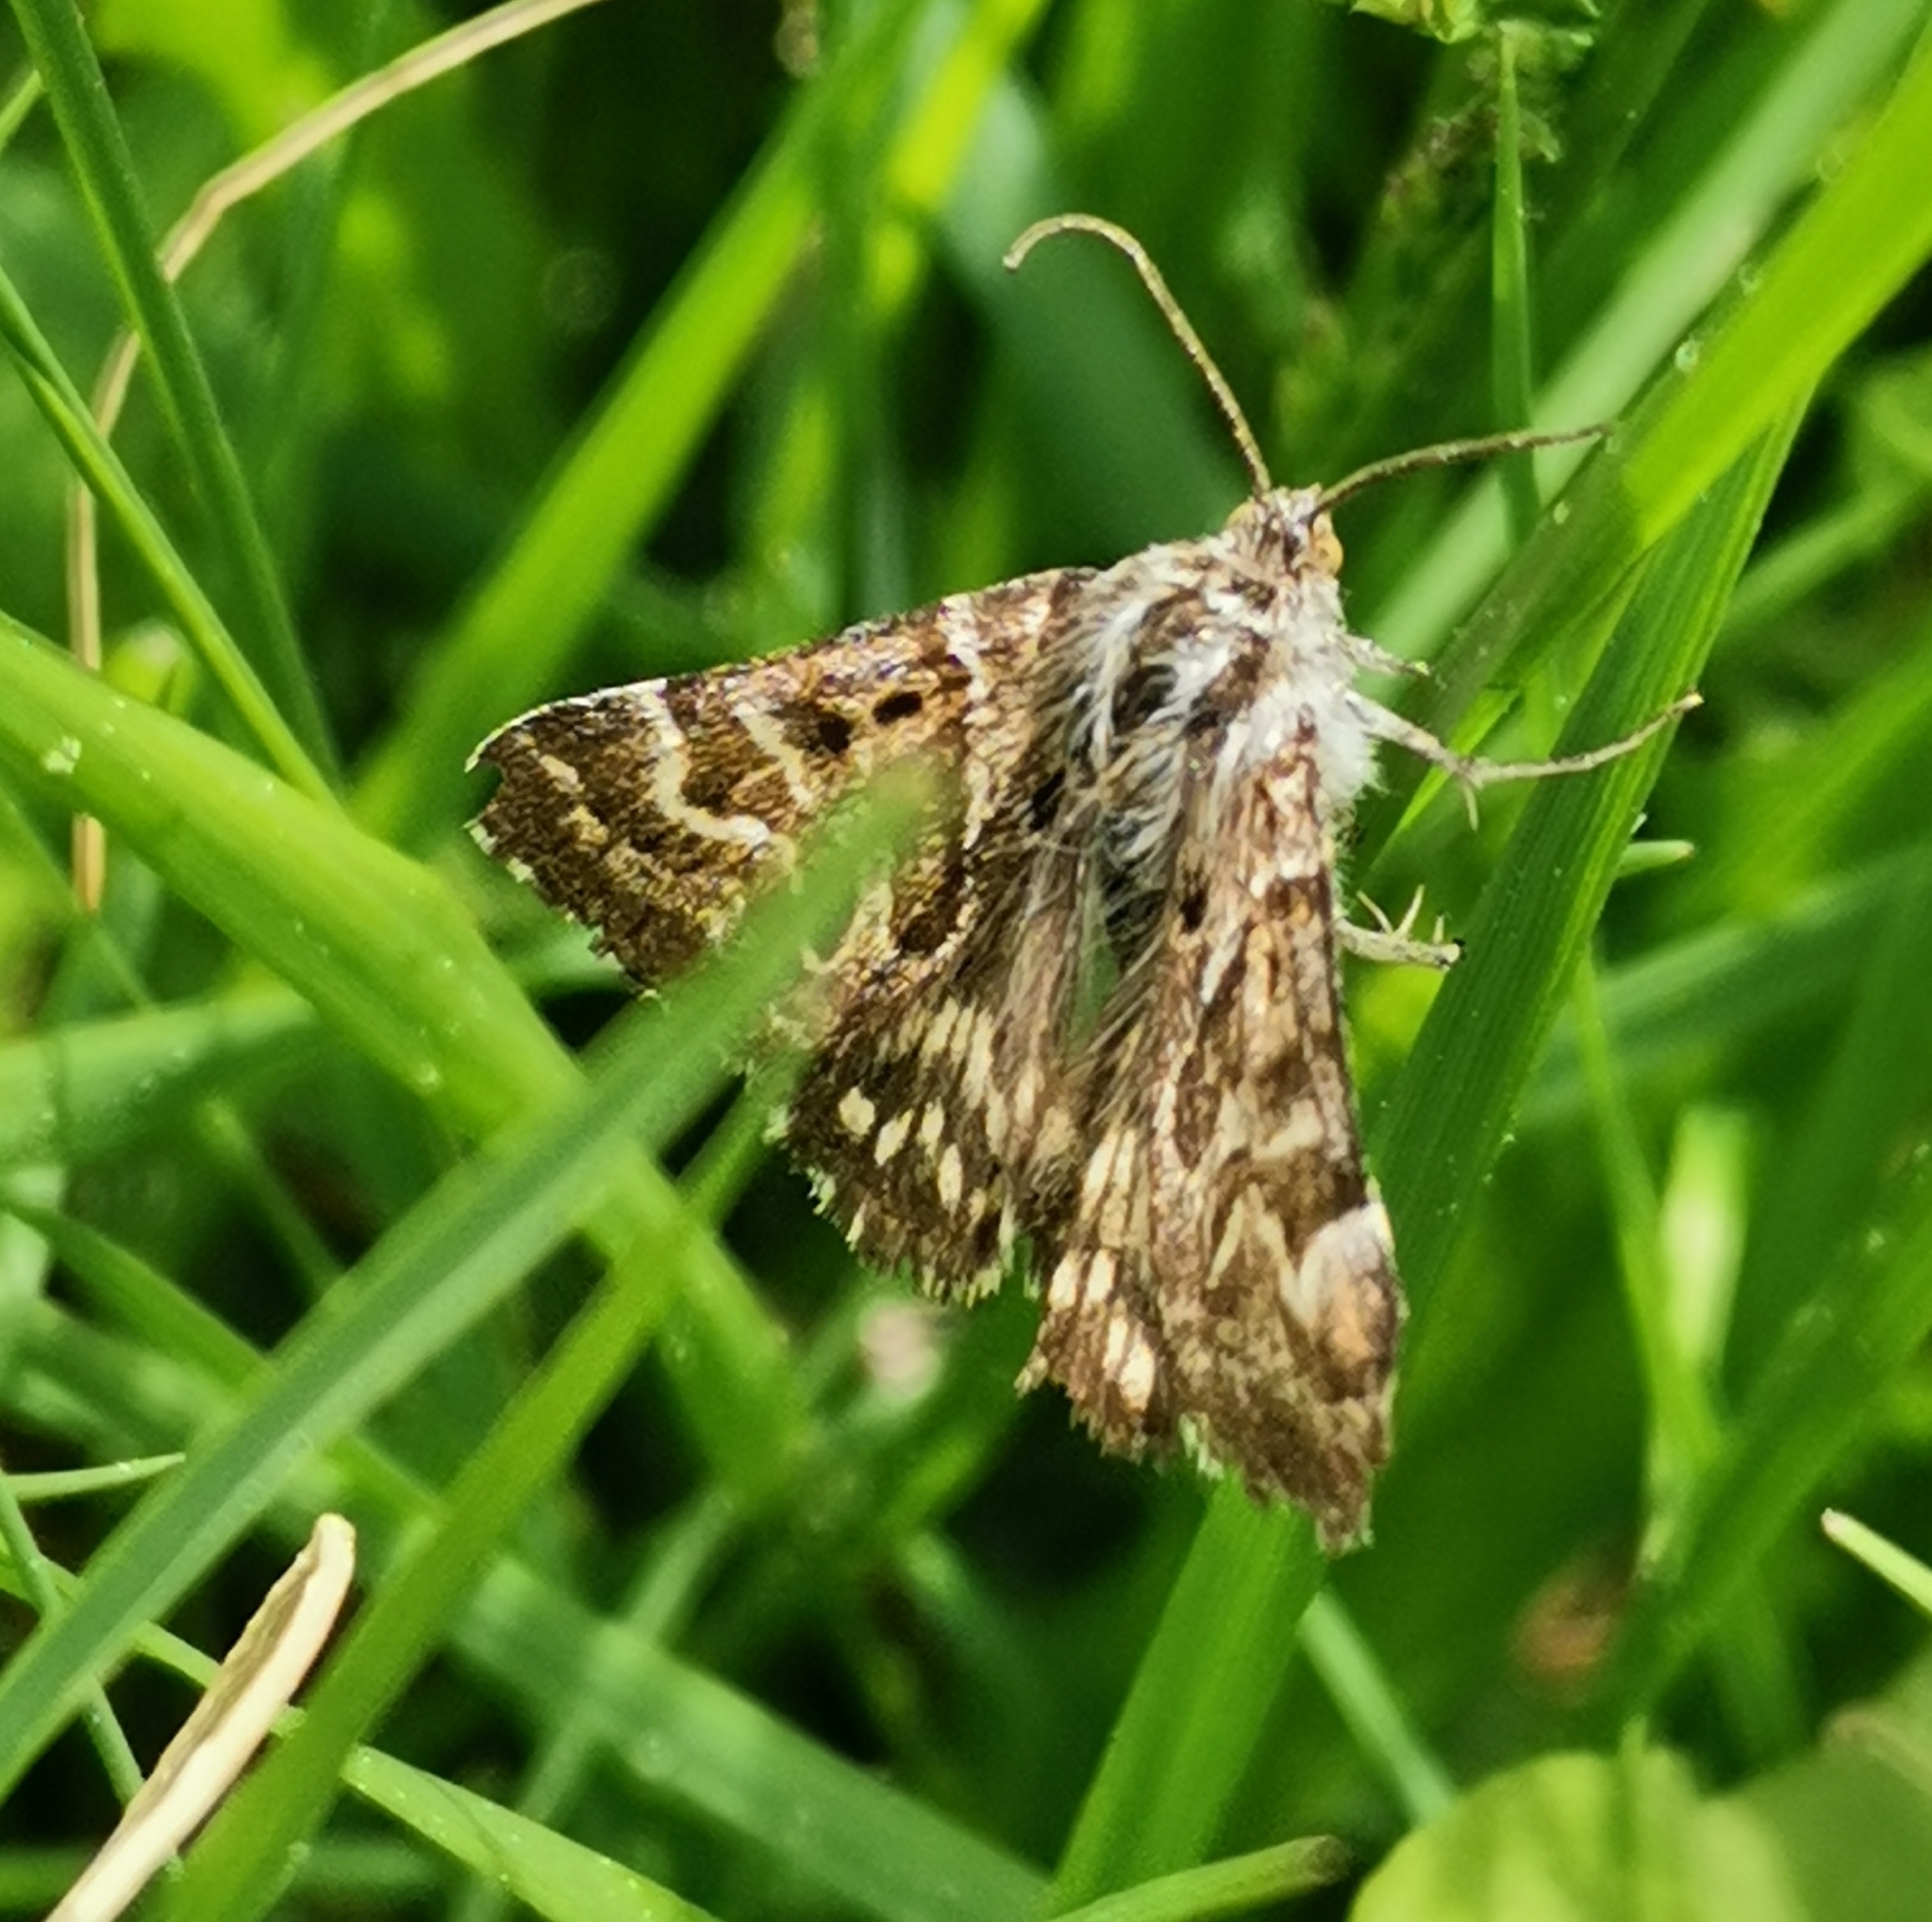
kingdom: Animalia
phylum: Arthropoda
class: Insecta
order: Lepidoptera
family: Erebidae
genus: Callistege
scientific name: Callistege mi
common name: Mother shipton
